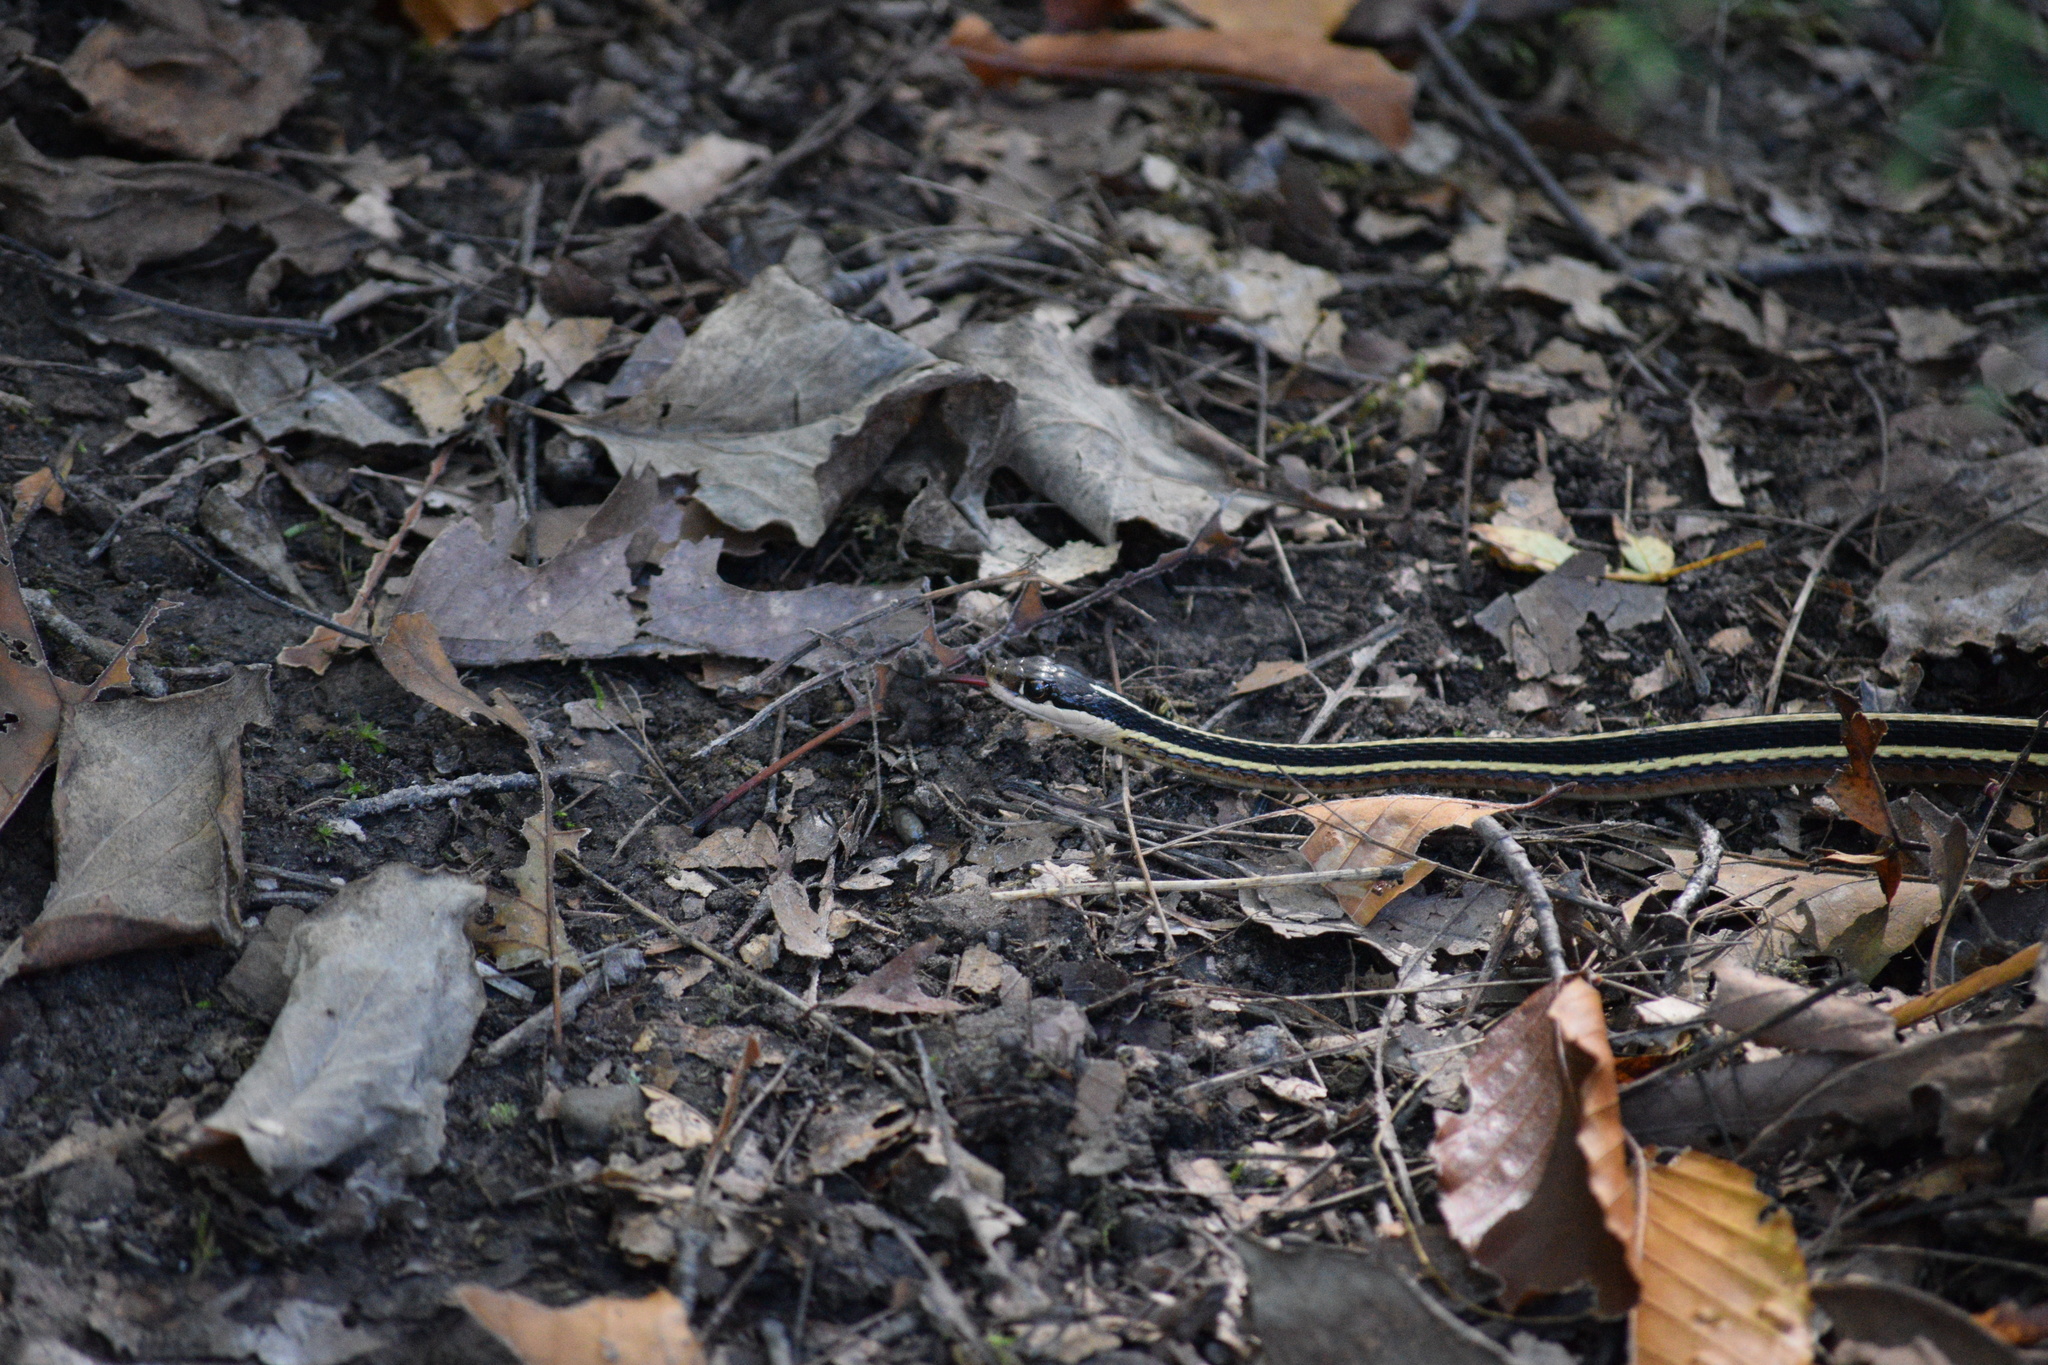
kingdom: Animalia
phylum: Chordata
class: Squamata
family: Colubridae
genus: Thamnophis
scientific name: Thamnophis saurita
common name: Eastern ribbonsnake
